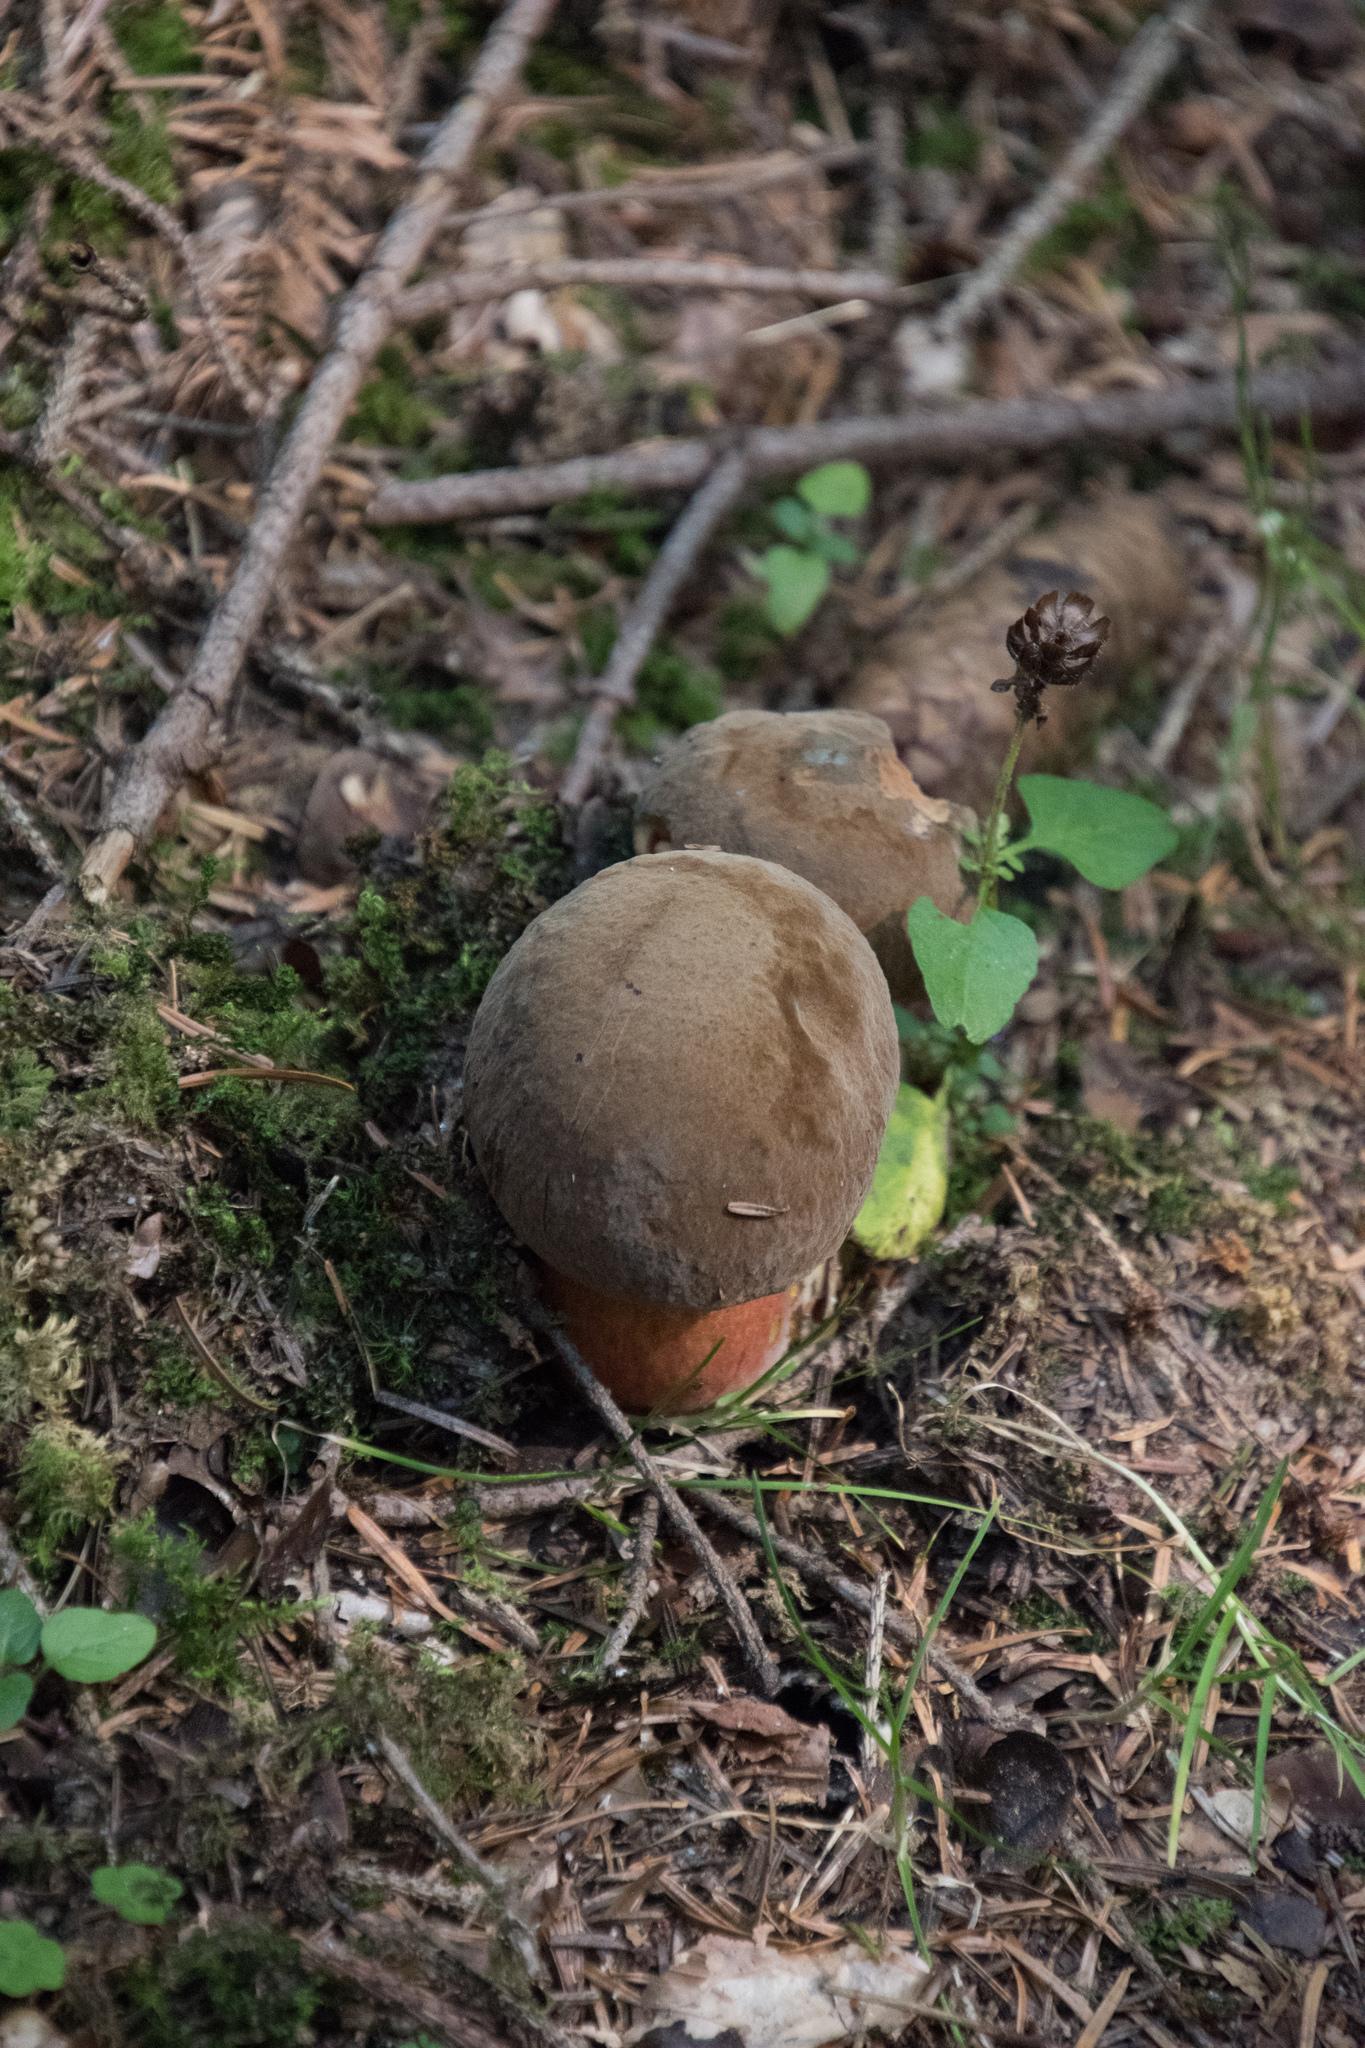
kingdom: Fungi
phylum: Basidiomycota
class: Agaricomycetes
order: Boletales
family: Boletaceae
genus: Neoboletus
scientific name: Neoboletus luridiformis
